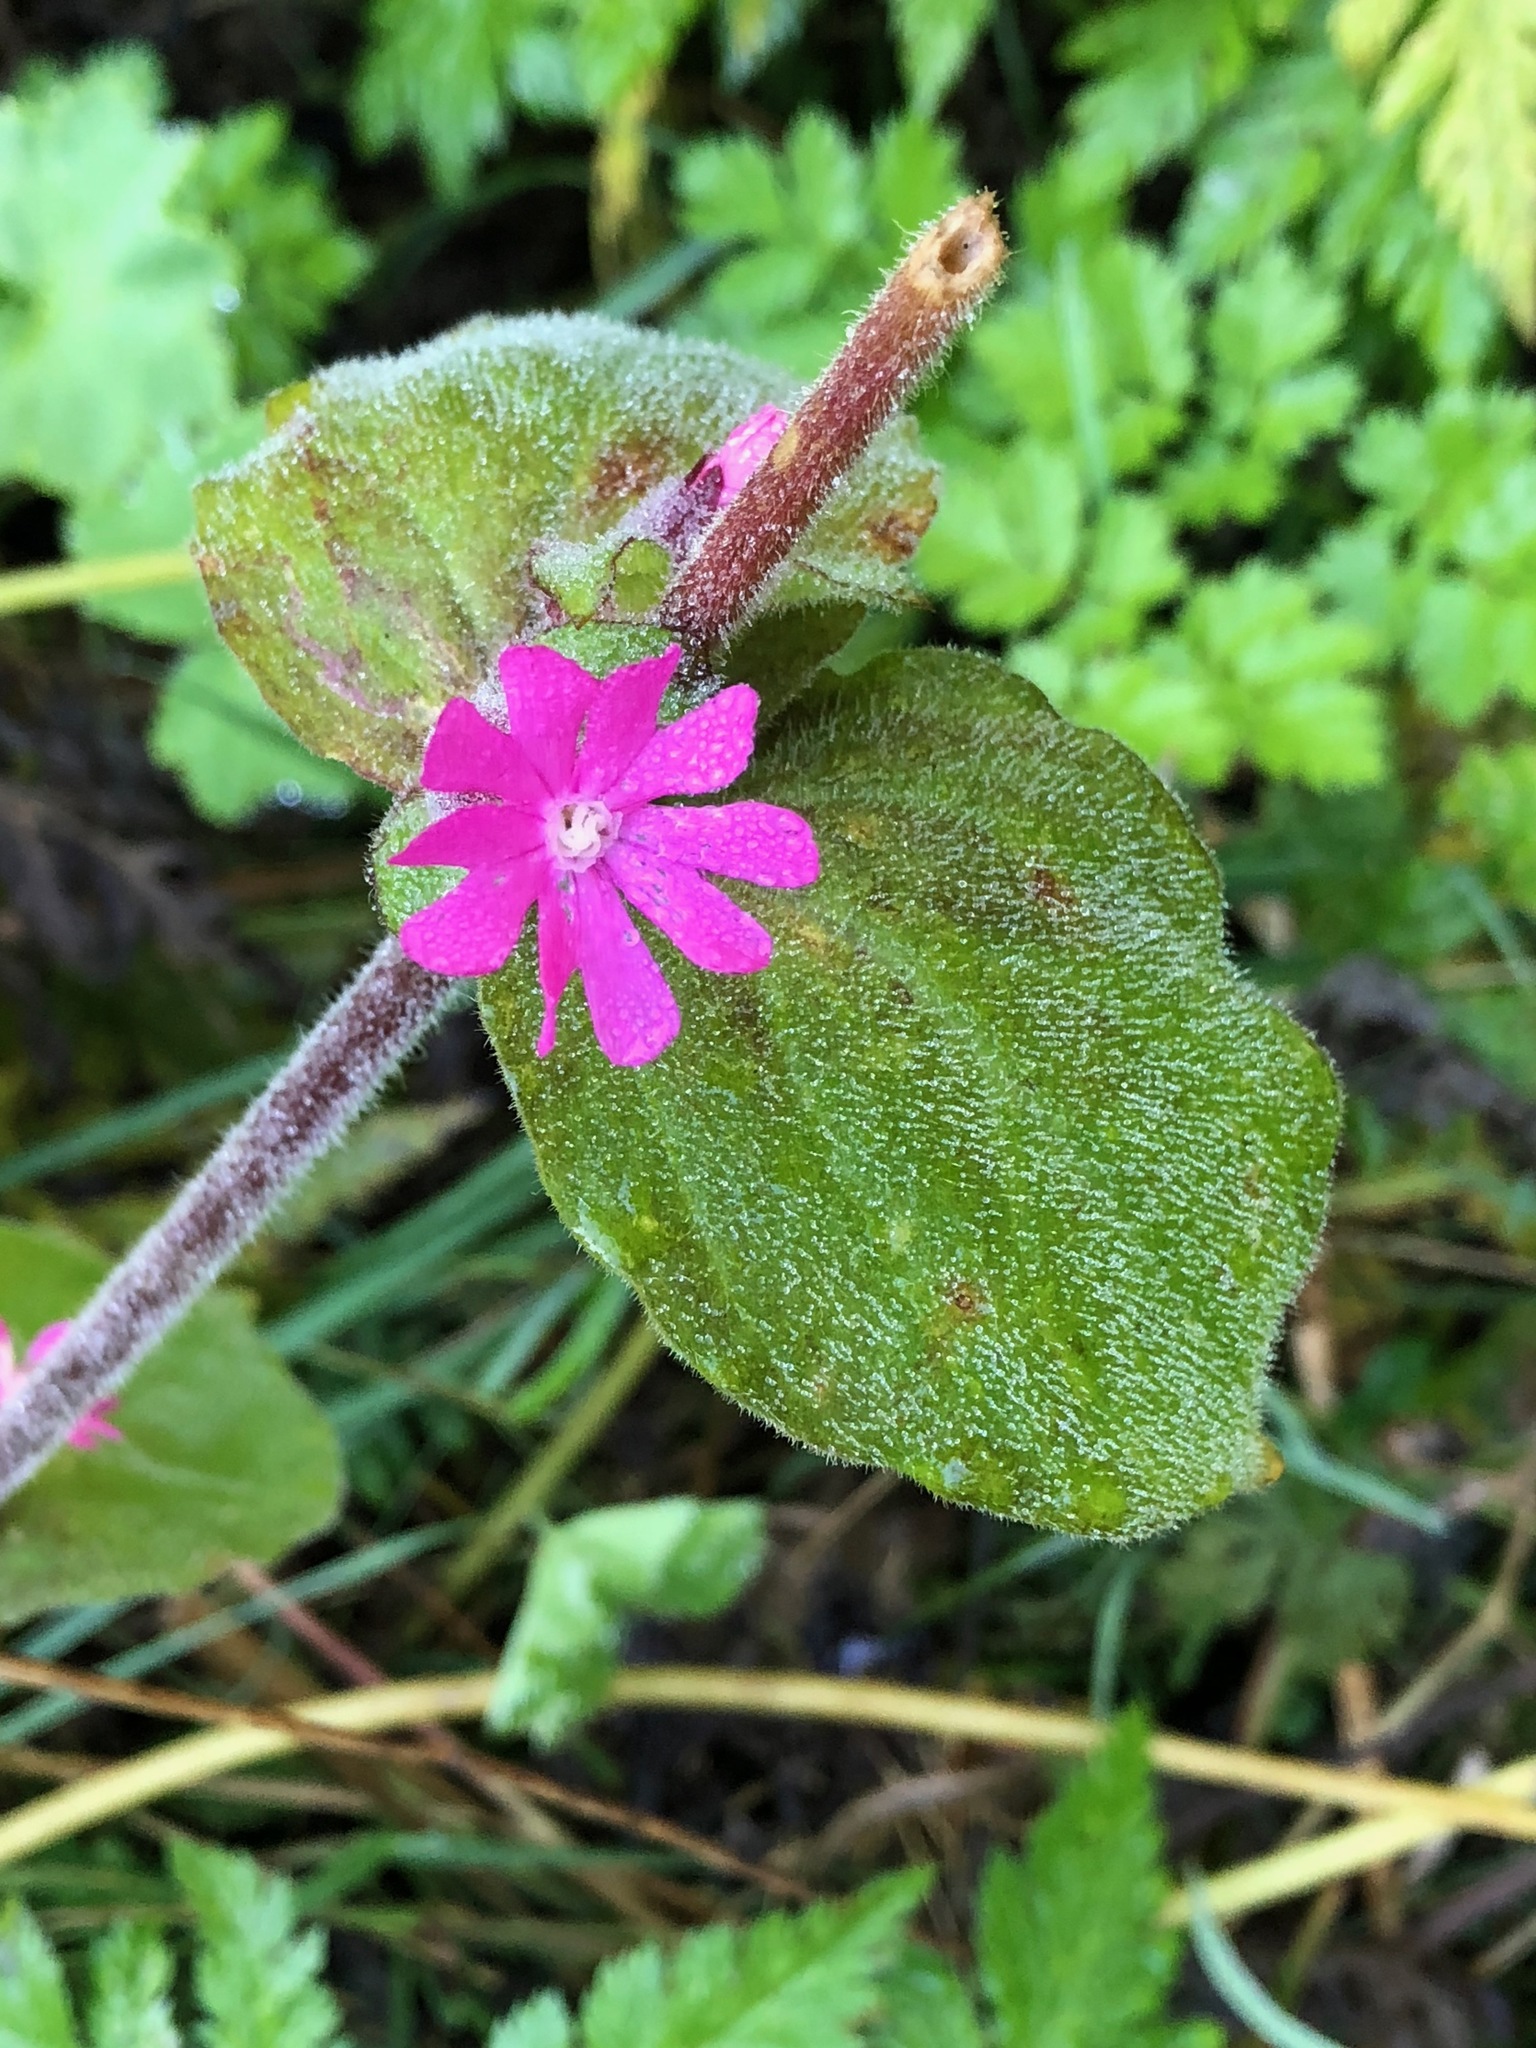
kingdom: Plantae
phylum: Tracheophyta
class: Magnoliopsida
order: Caryophyllales
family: Caryophyllaceae
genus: Silene
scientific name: Silene dioica
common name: Red campion
